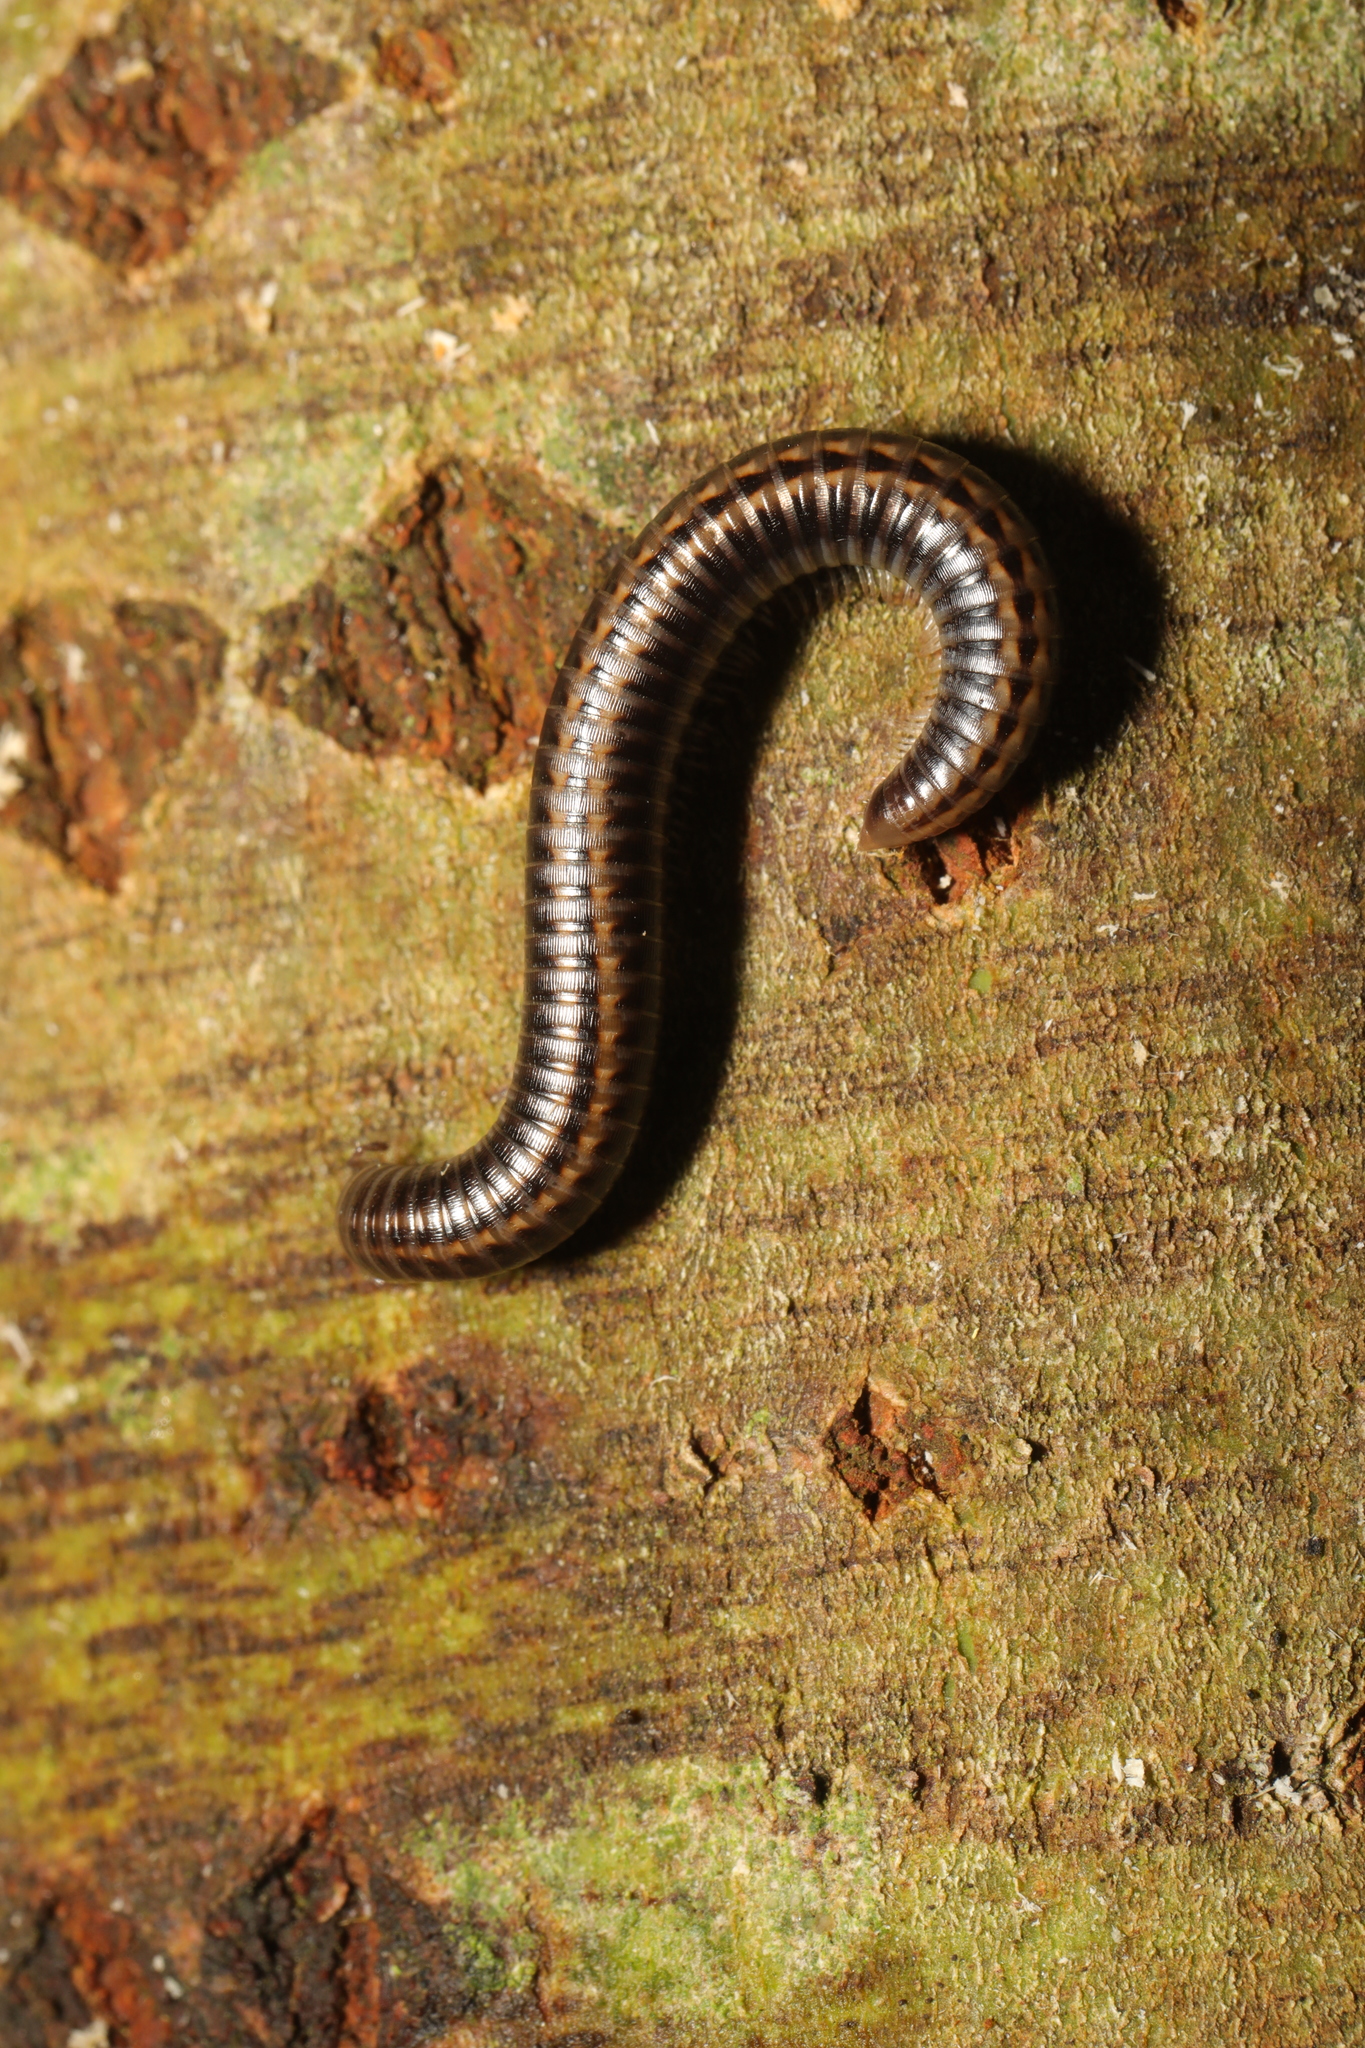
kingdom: Animalia
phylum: Arthropoda
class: Diplopoda
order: Julida
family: Julidae
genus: Ommatoiulus
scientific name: Ommatoiulus sabulosus
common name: Striped millipede
